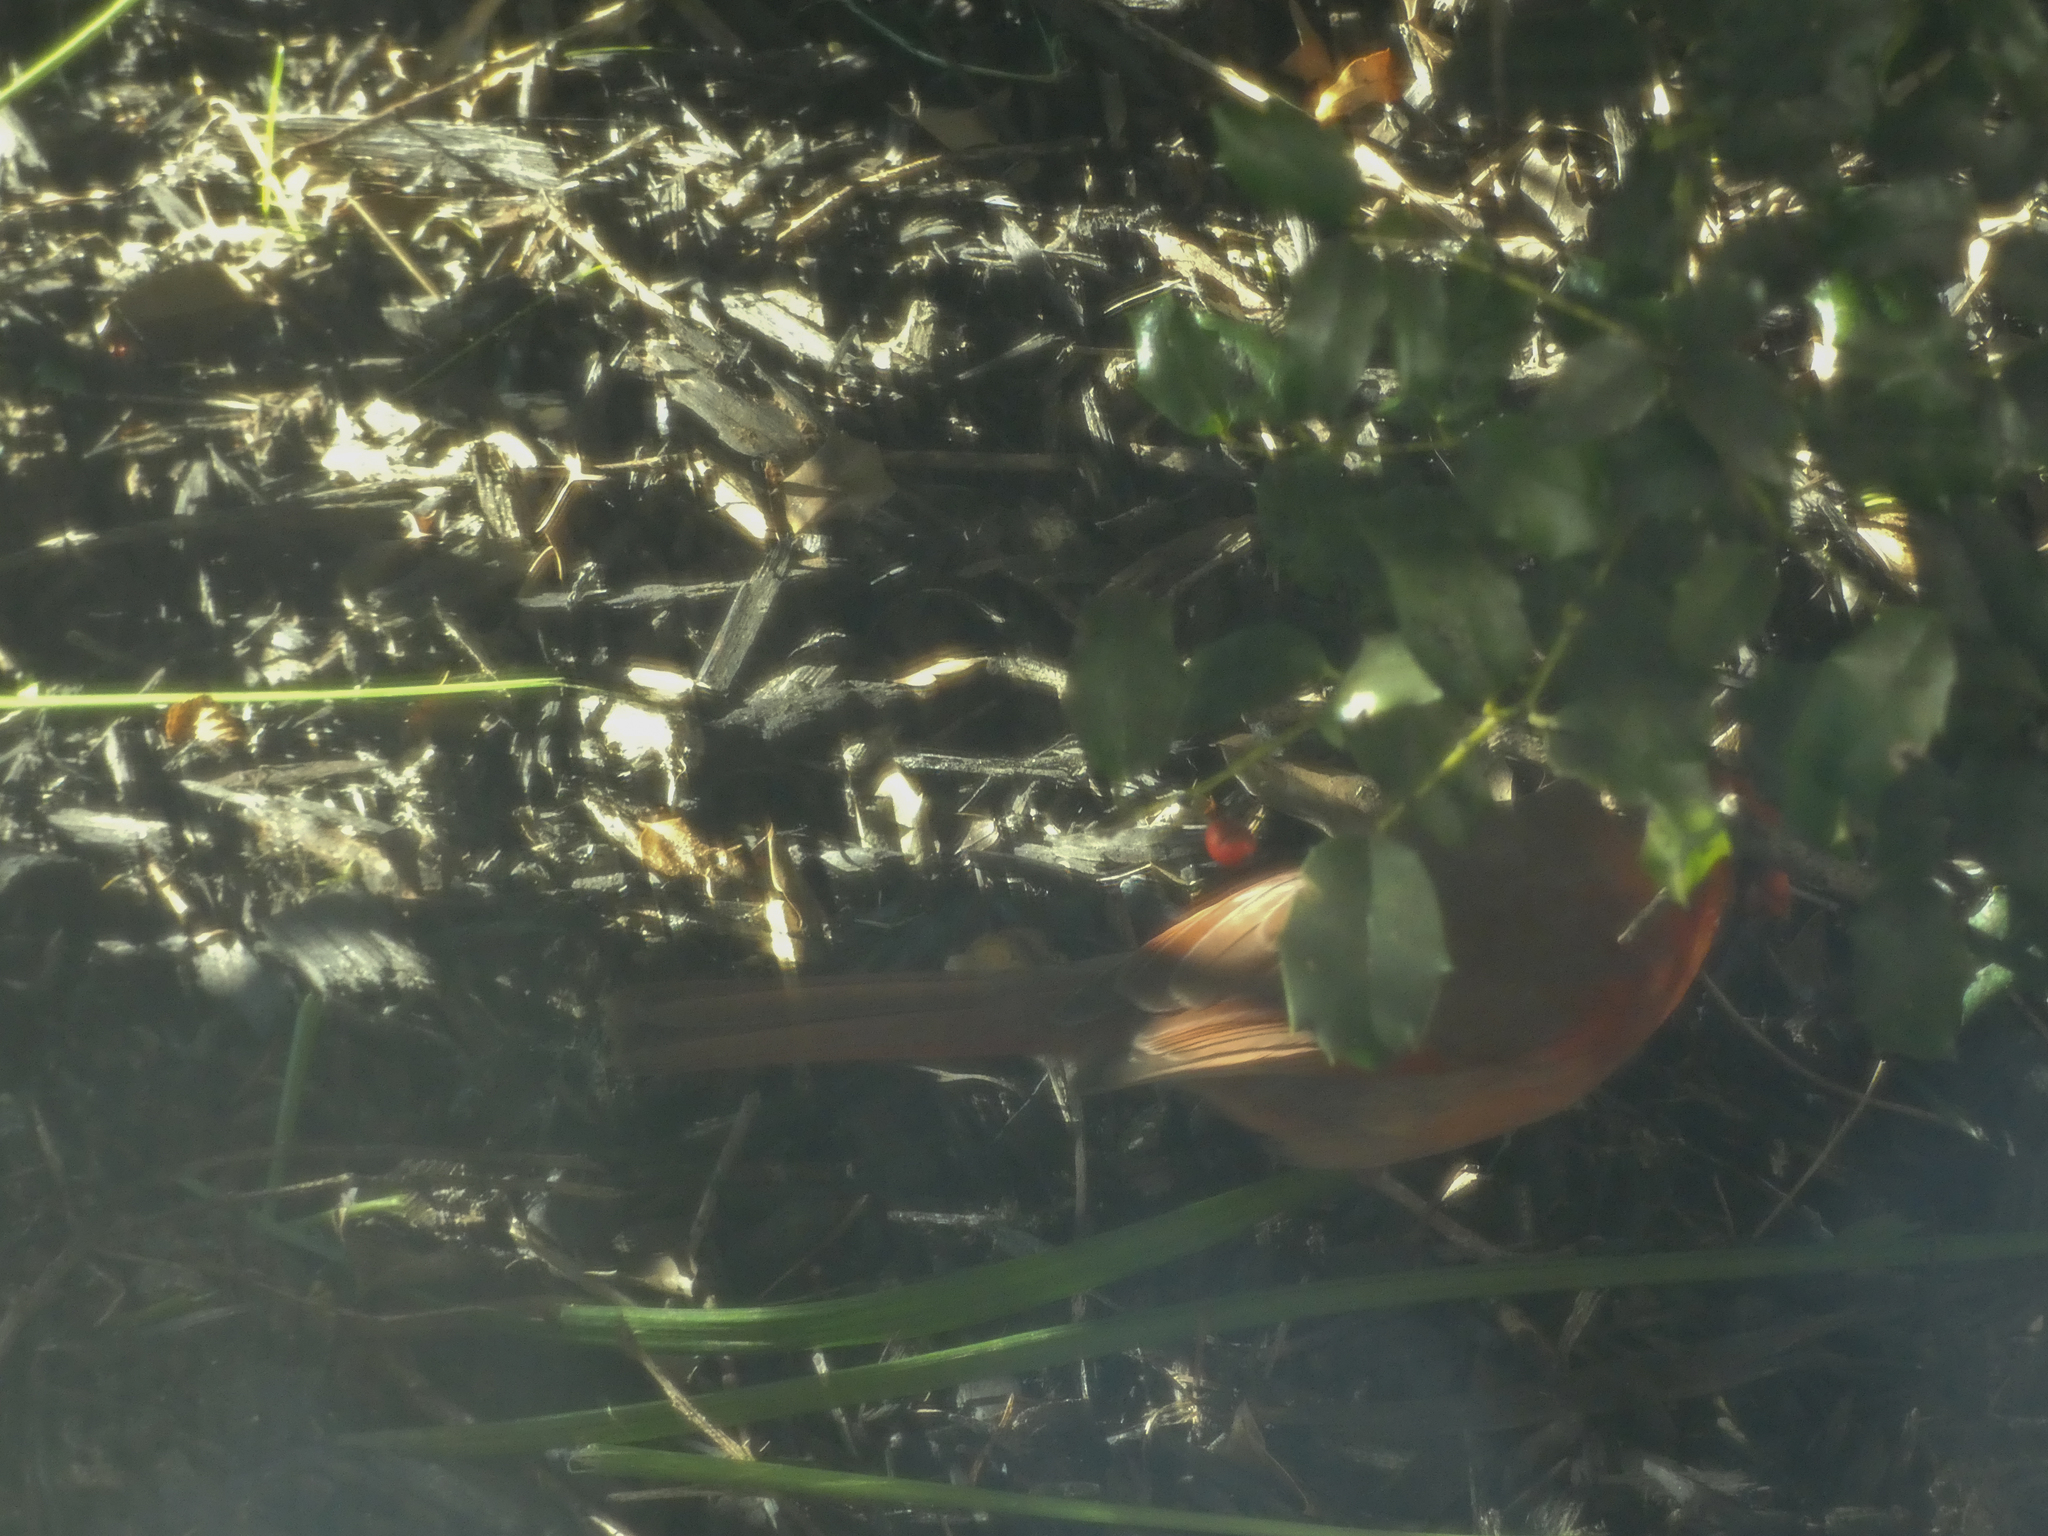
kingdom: Animalia
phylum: Chordata
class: Aves
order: Passeriformes
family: Cardinalidae
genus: Cardinalis
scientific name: Cardinalis cardinalis
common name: Northern cardinal
